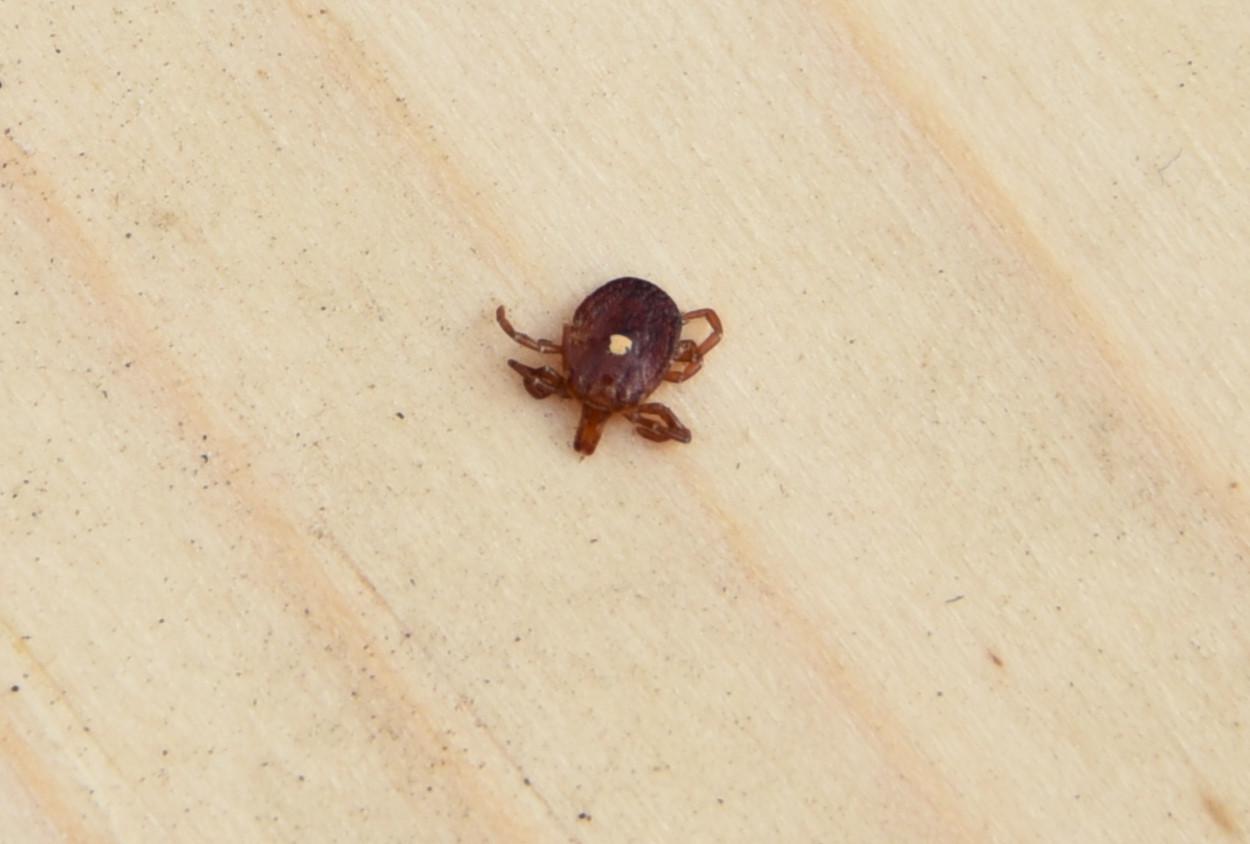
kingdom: Animalia
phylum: Arthropoda
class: Arachnida
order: Ixodida
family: Ixodidae
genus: Amblyomma
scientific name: Amblyomma americanum
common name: Lone star tick
